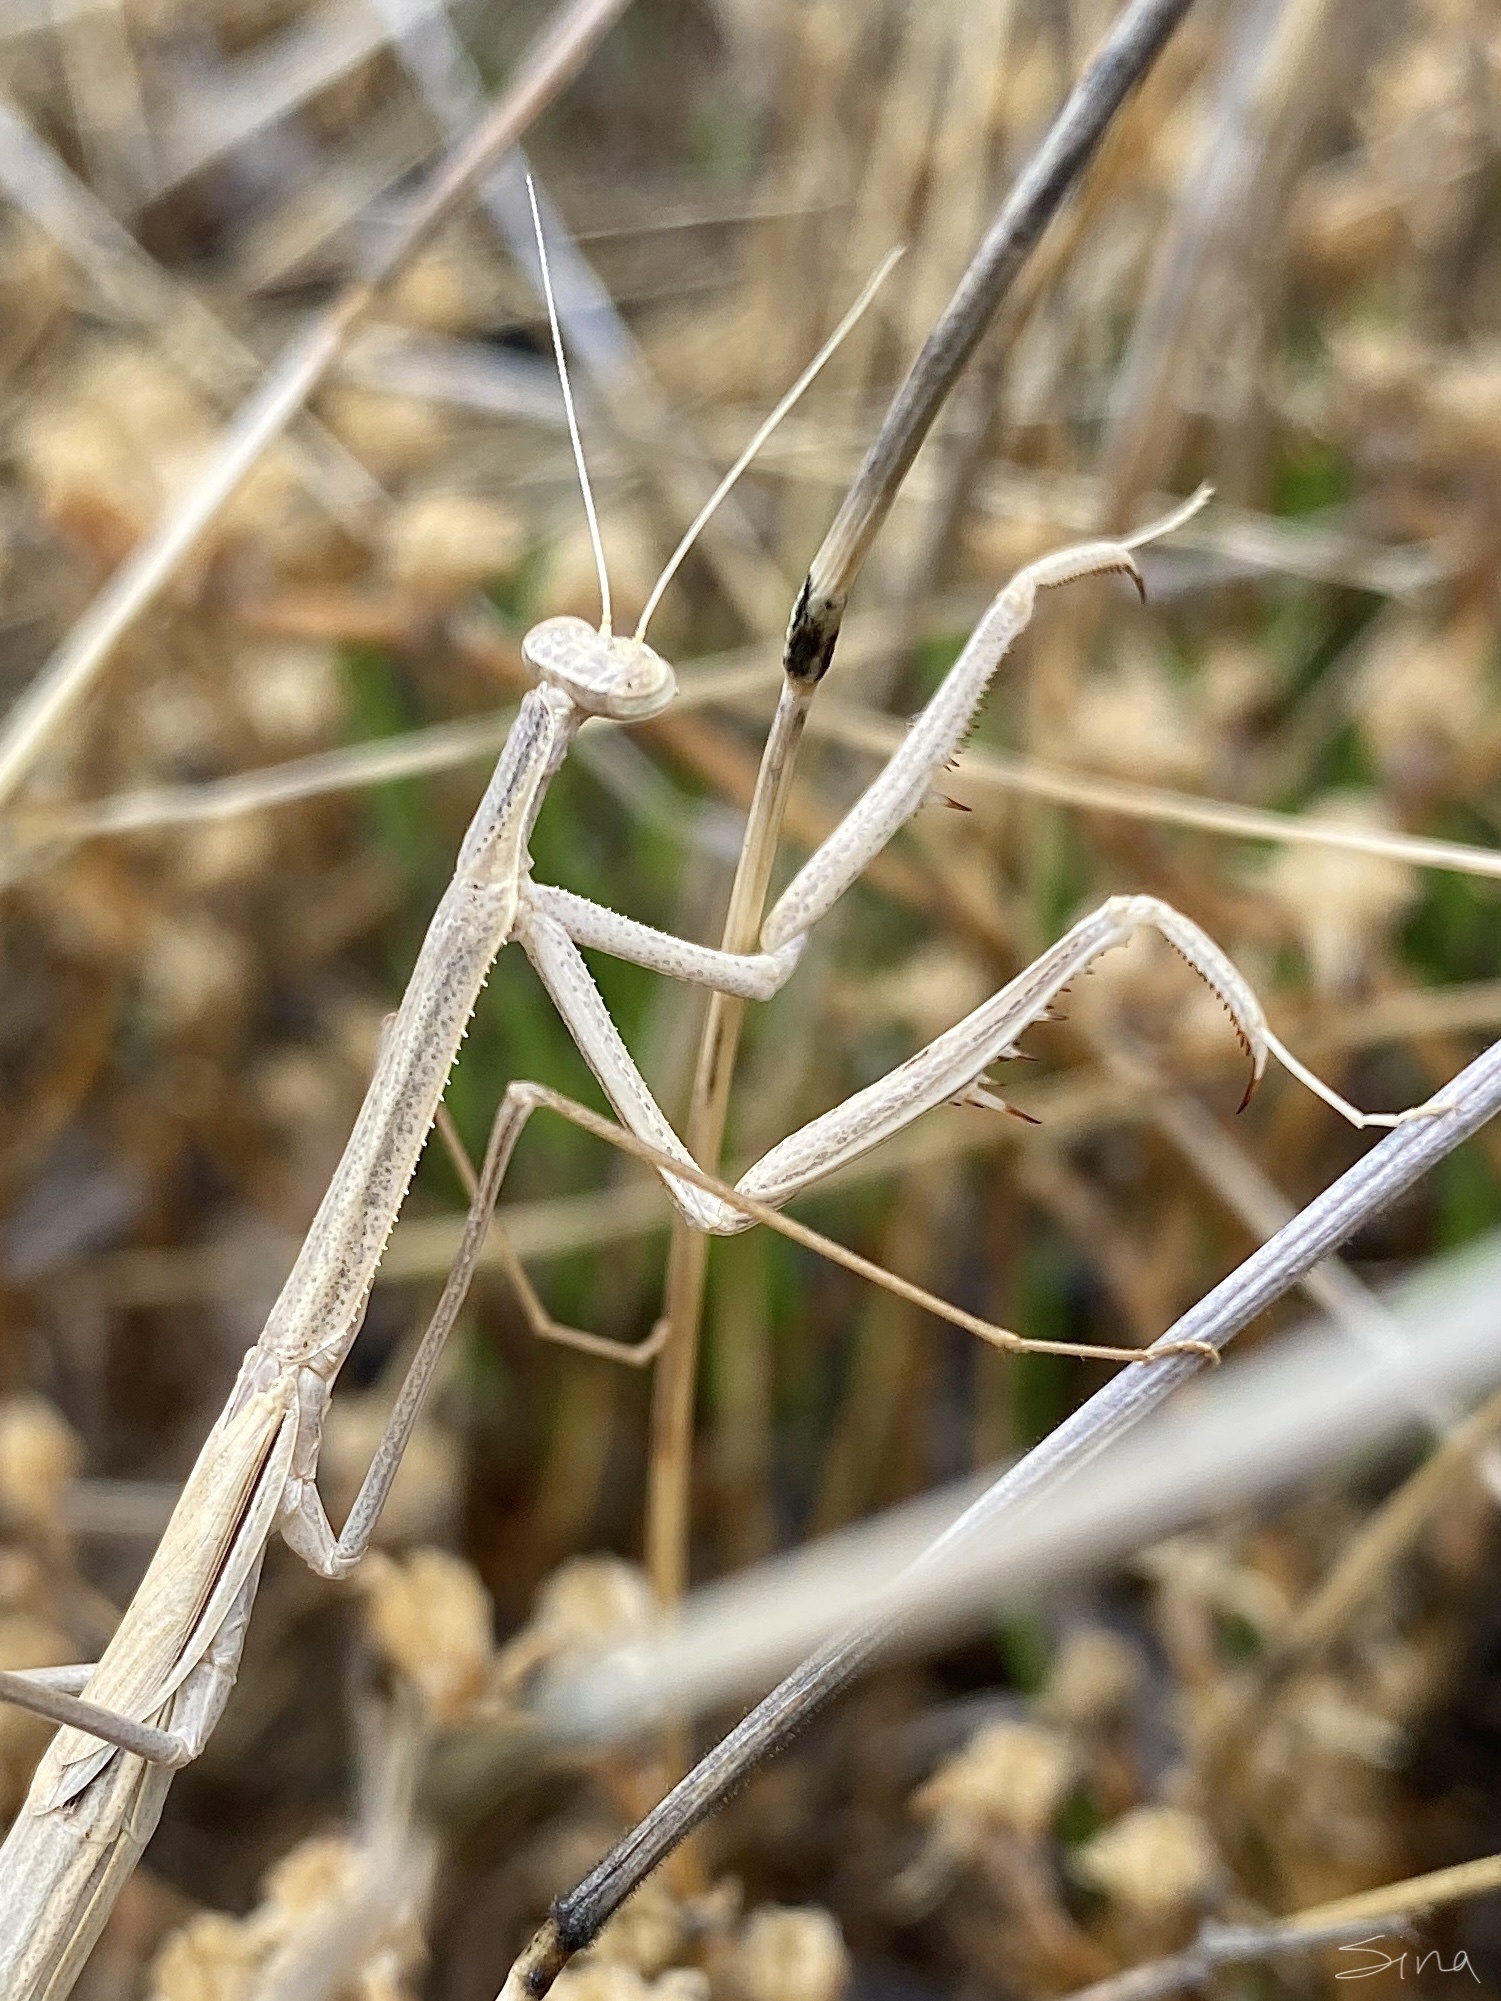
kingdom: Animalia
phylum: Arthropoda
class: Insecta
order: Mantodea
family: Mantidae
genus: Rhodomantis
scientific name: Rhodomantis disparilis
